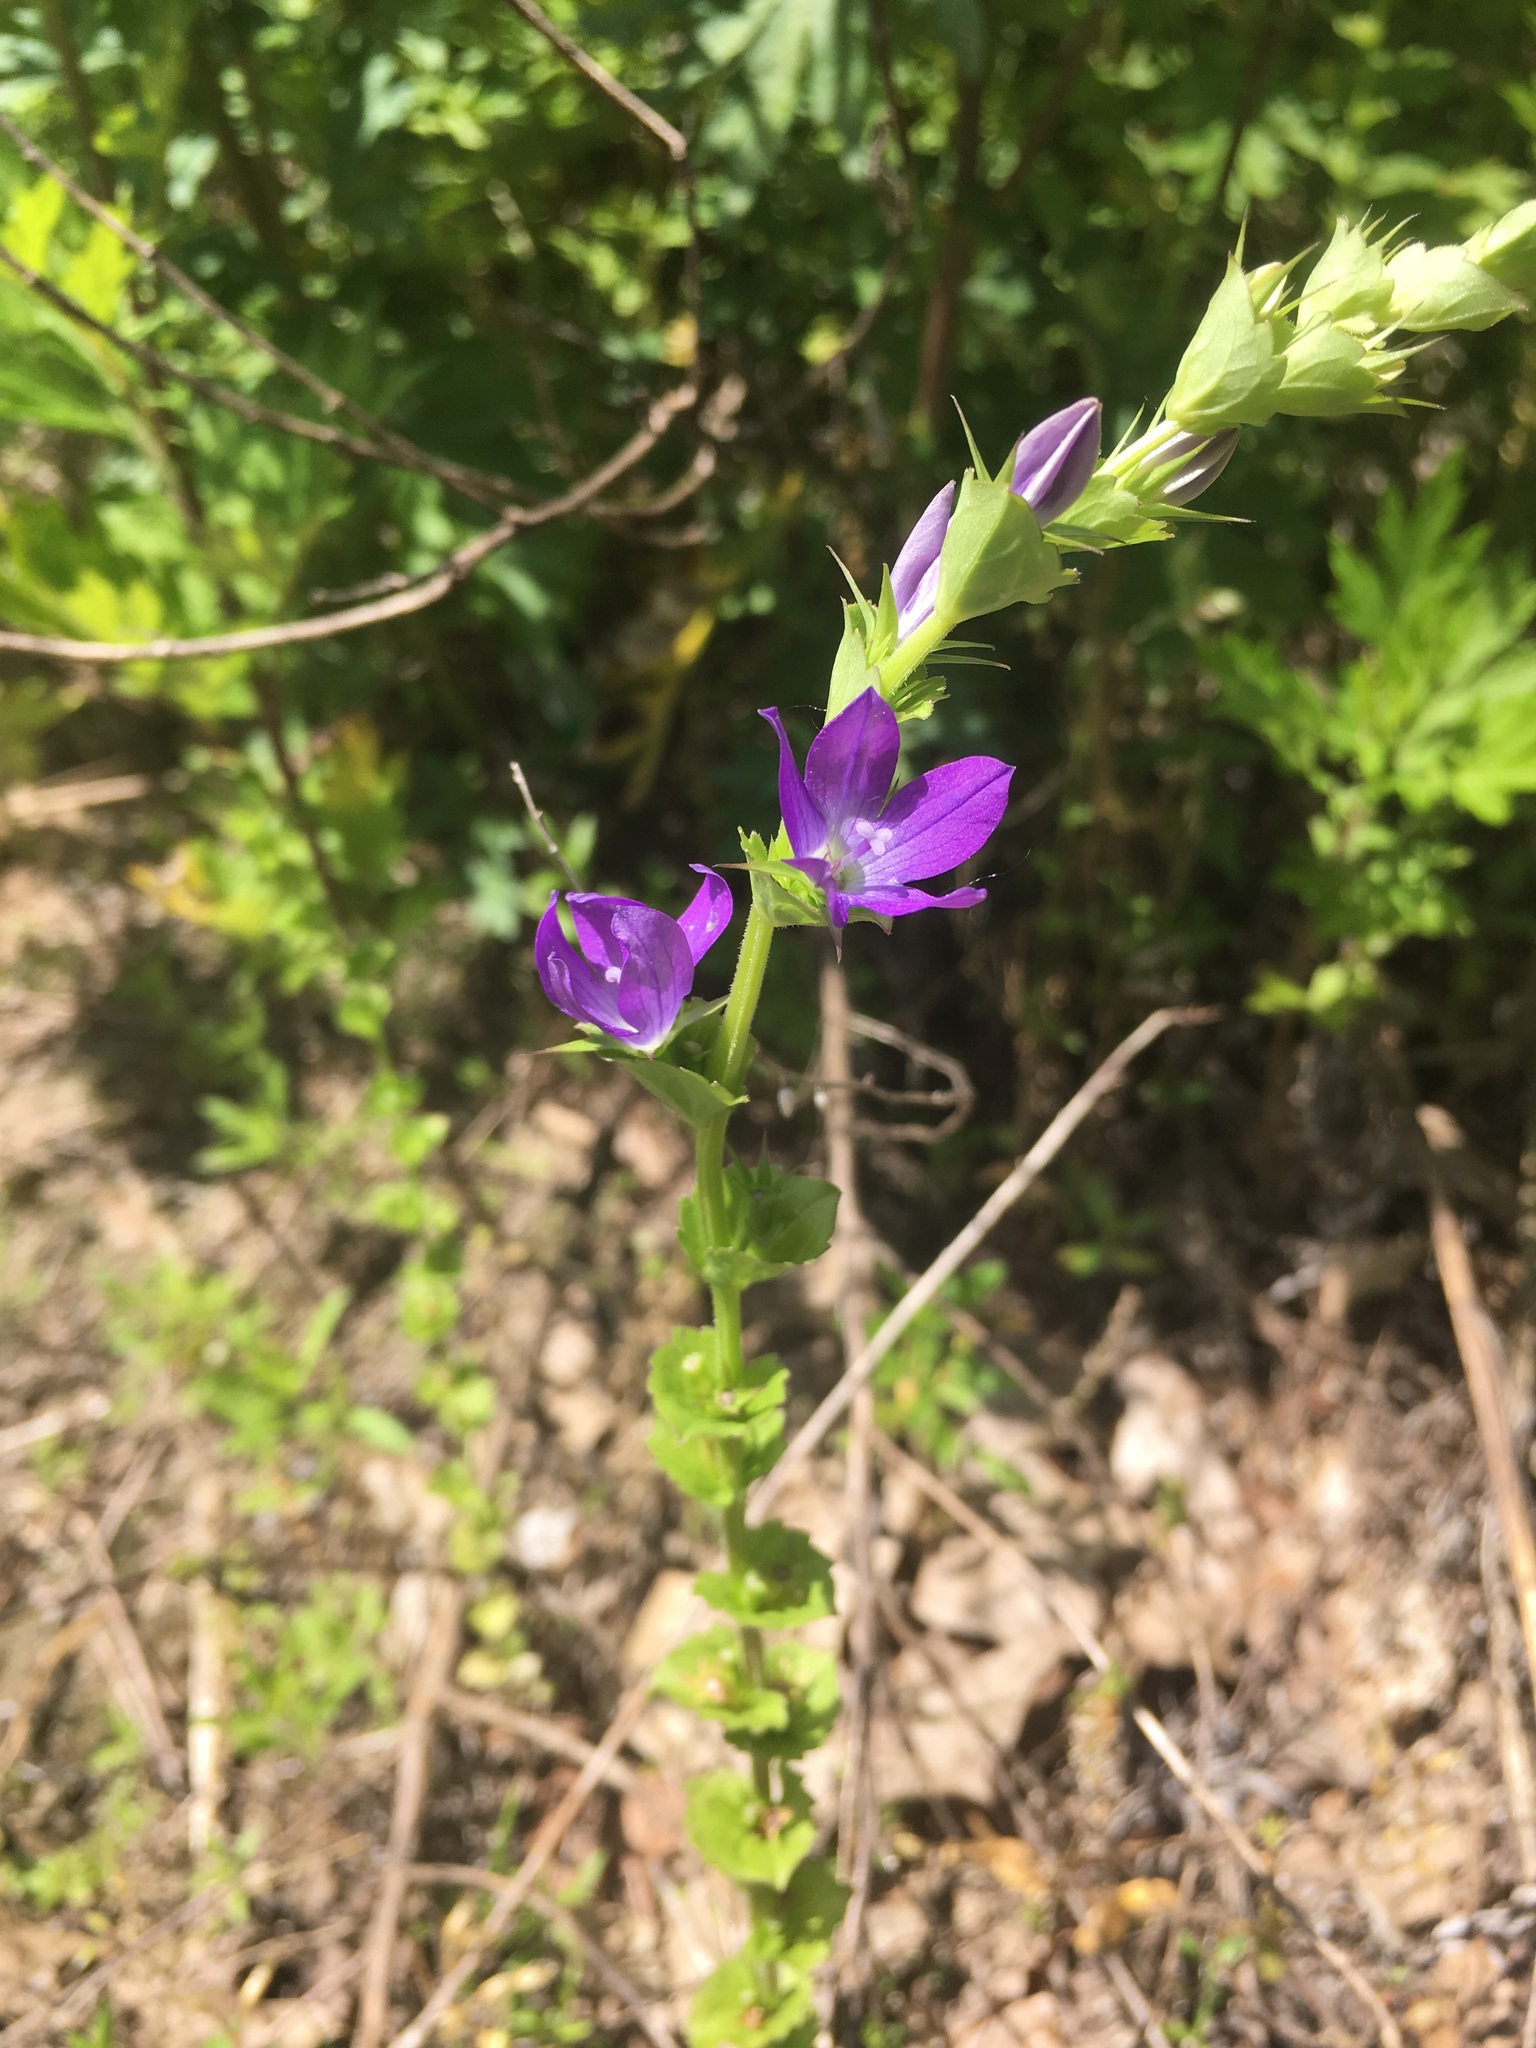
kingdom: Plantae
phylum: Tracheophyta
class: Magnoliopsida
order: Asterales
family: Campanulaceae
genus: Triodanis
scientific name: Triodanis perfoliata
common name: Clasping venus' looking-glass
